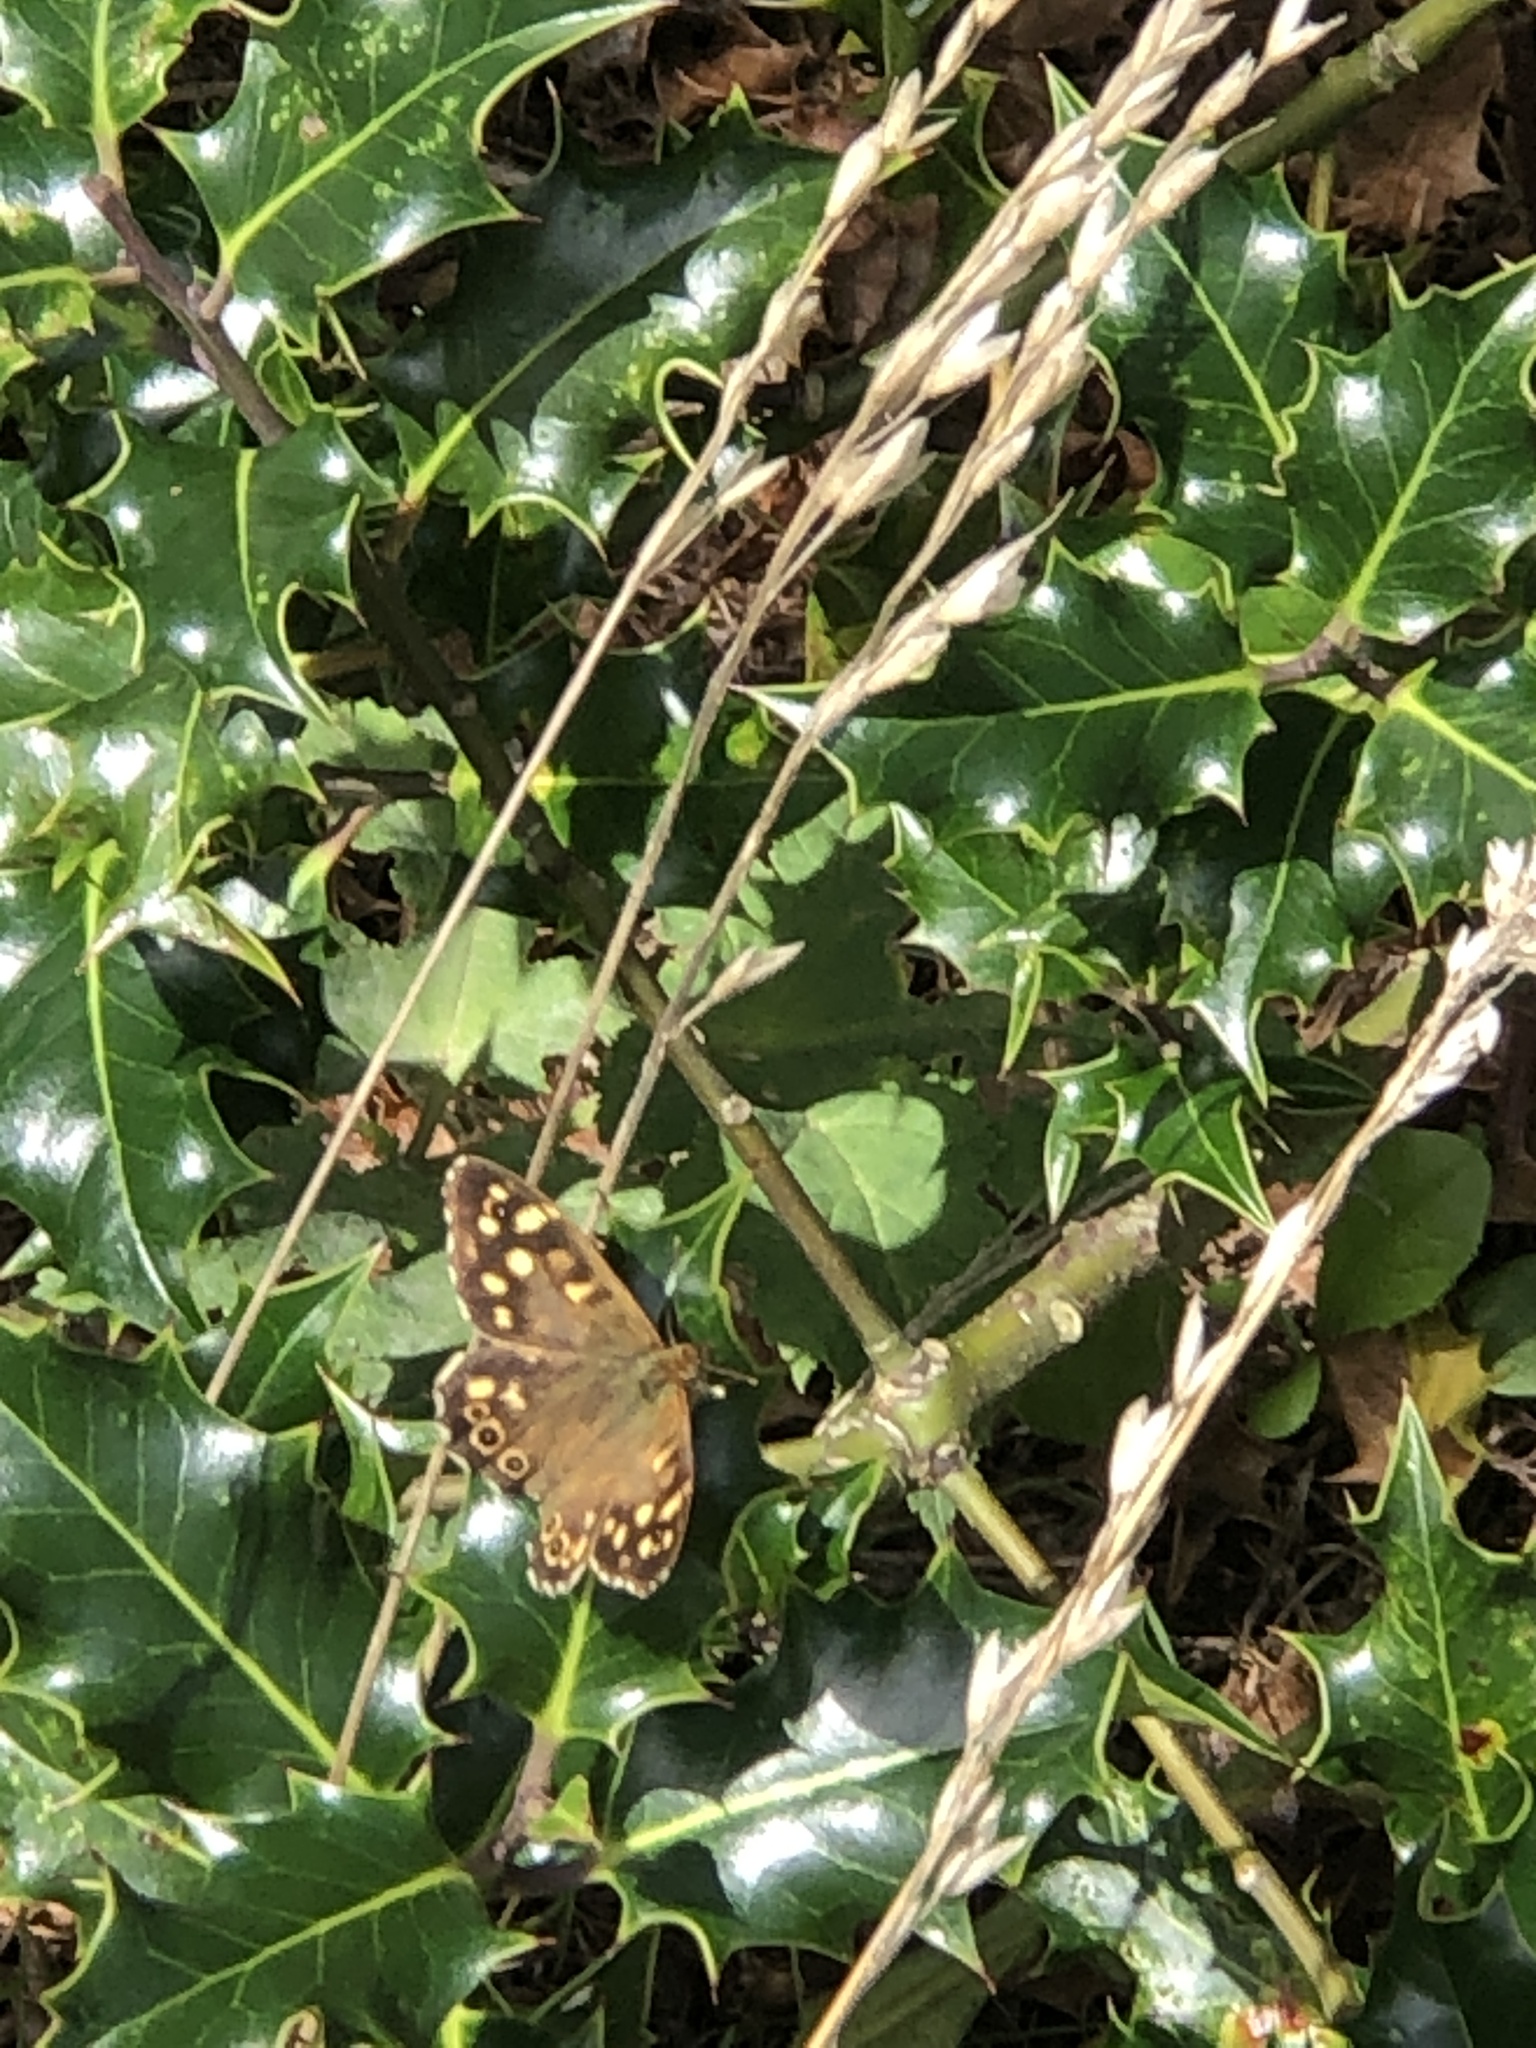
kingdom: Animalia
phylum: Arthropoda
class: Insecta
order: Lepidoptera
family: Nymphalidae
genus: Pararge
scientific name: Pararge aegeria
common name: Speckled wood
